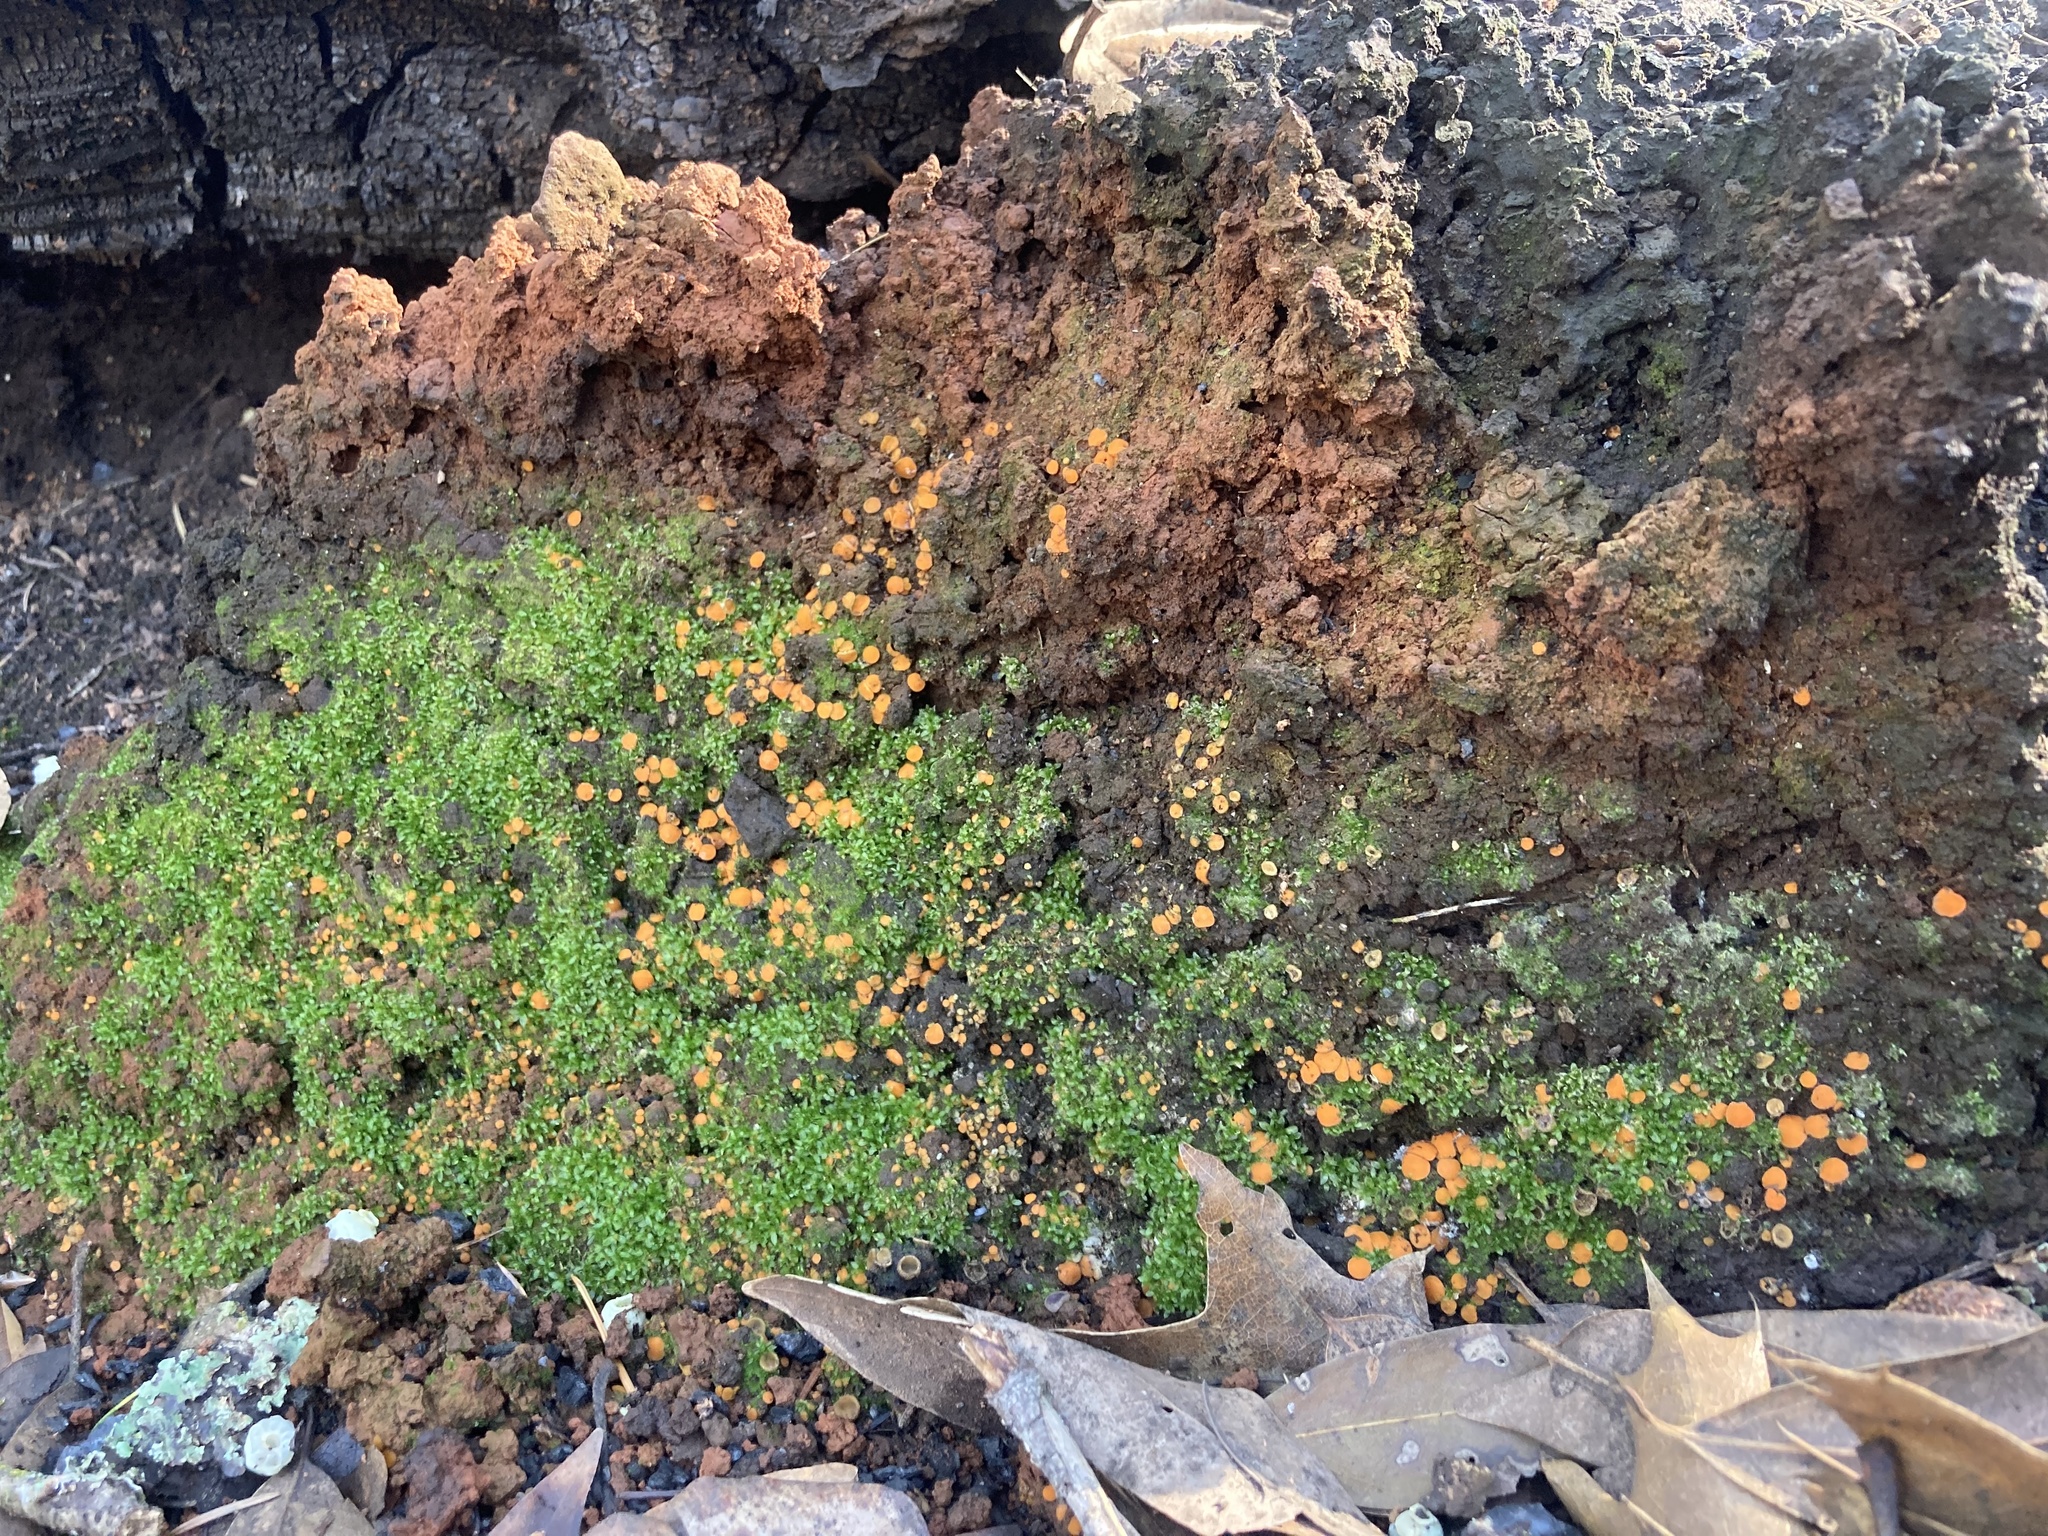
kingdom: Fungi
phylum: Ascomycota
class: Pezizomycetes
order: Pezizales
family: Pyronemataceae
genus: Anthracobia
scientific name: Anthracobia melaloma
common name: Charcoal eyelash
